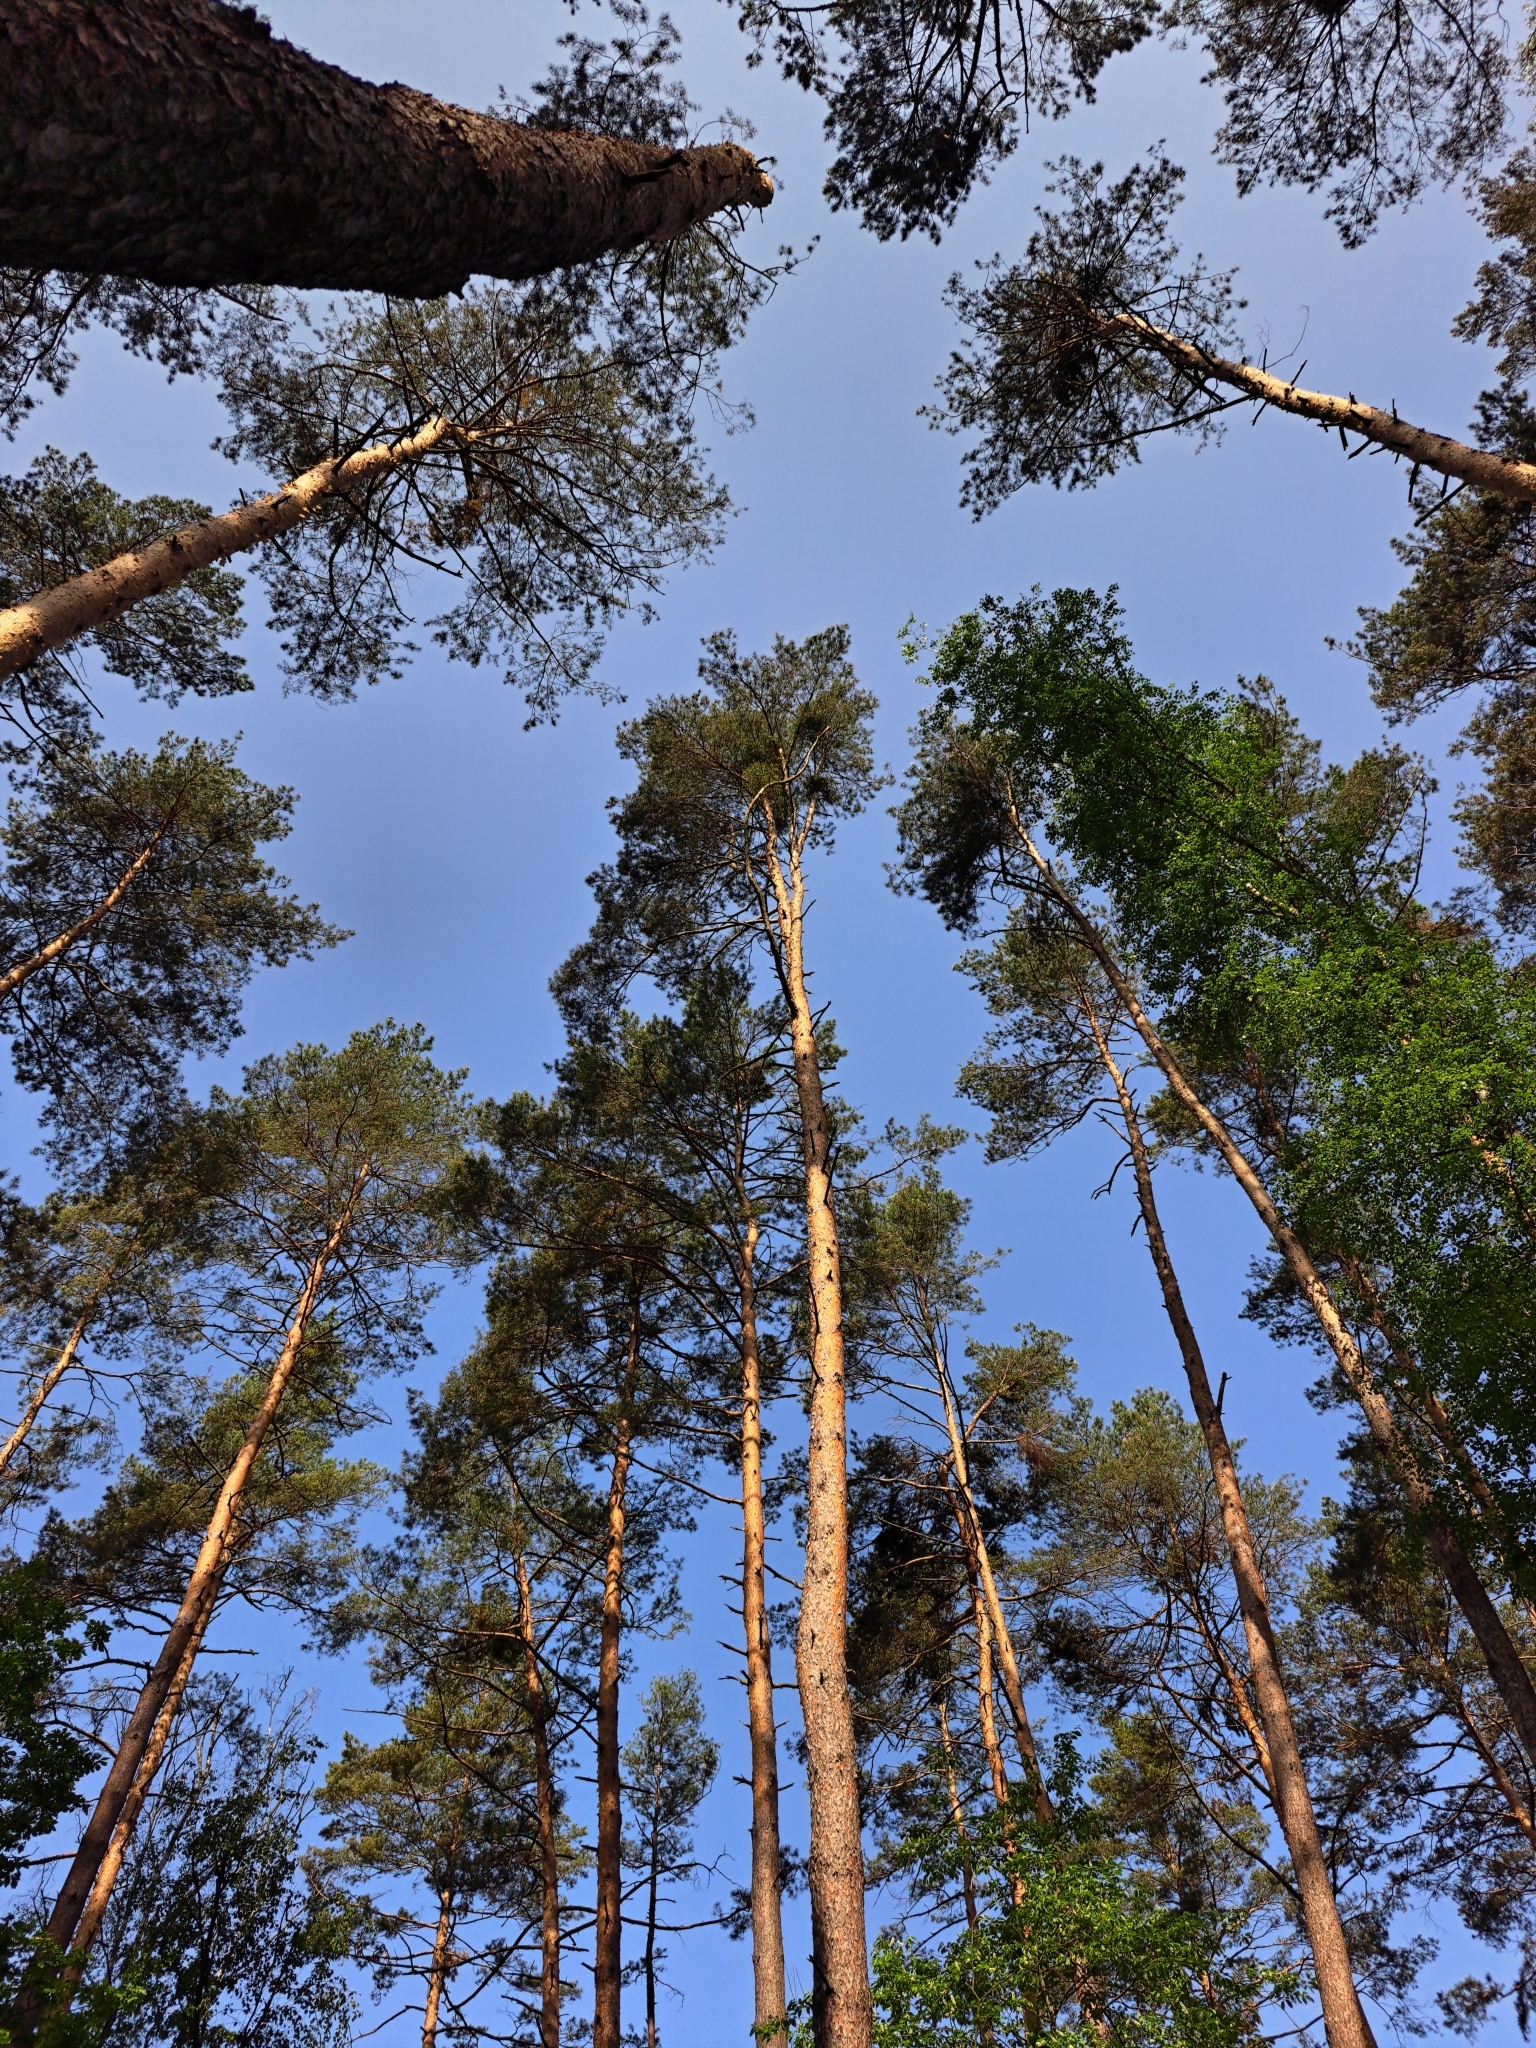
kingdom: Plantae
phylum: Tracheophyta
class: Pinopsida
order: Pinales
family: Pinaceae
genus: Pinus
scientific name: Pinus sylvestris
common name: Scots pine
